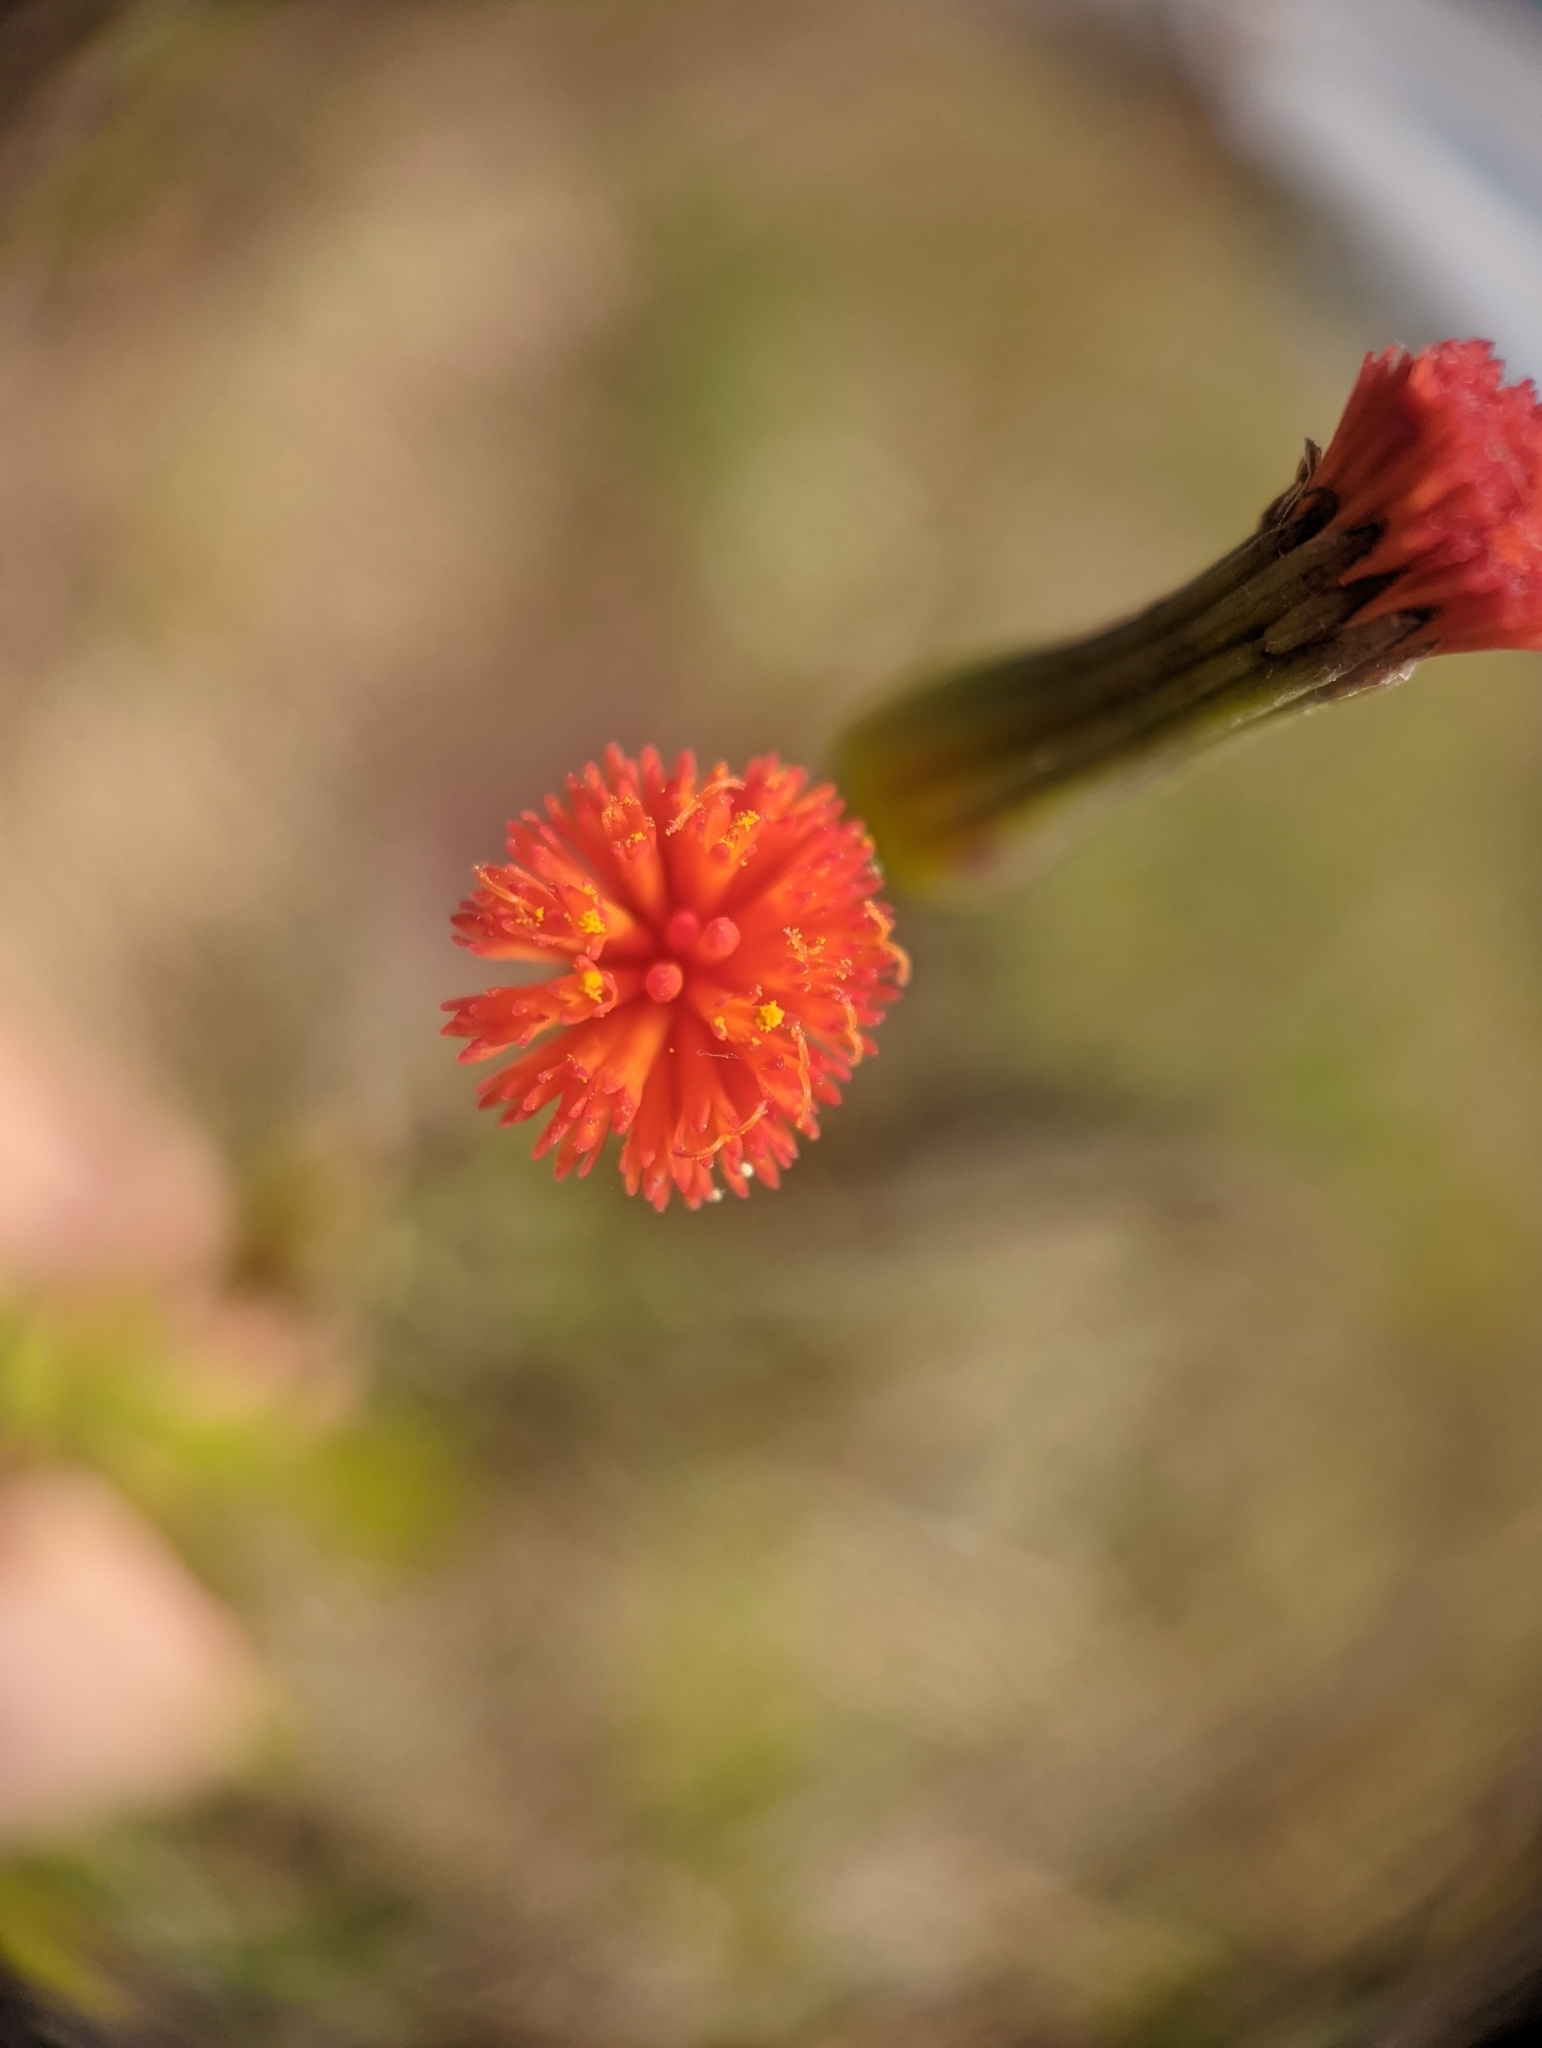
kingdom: Plantae
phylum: Tracheophyta
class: Magnoliopsida
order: Asterales
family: Asteraceae
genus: Emilia
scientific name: Emilia fosbergii
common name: Florida tasselflower
